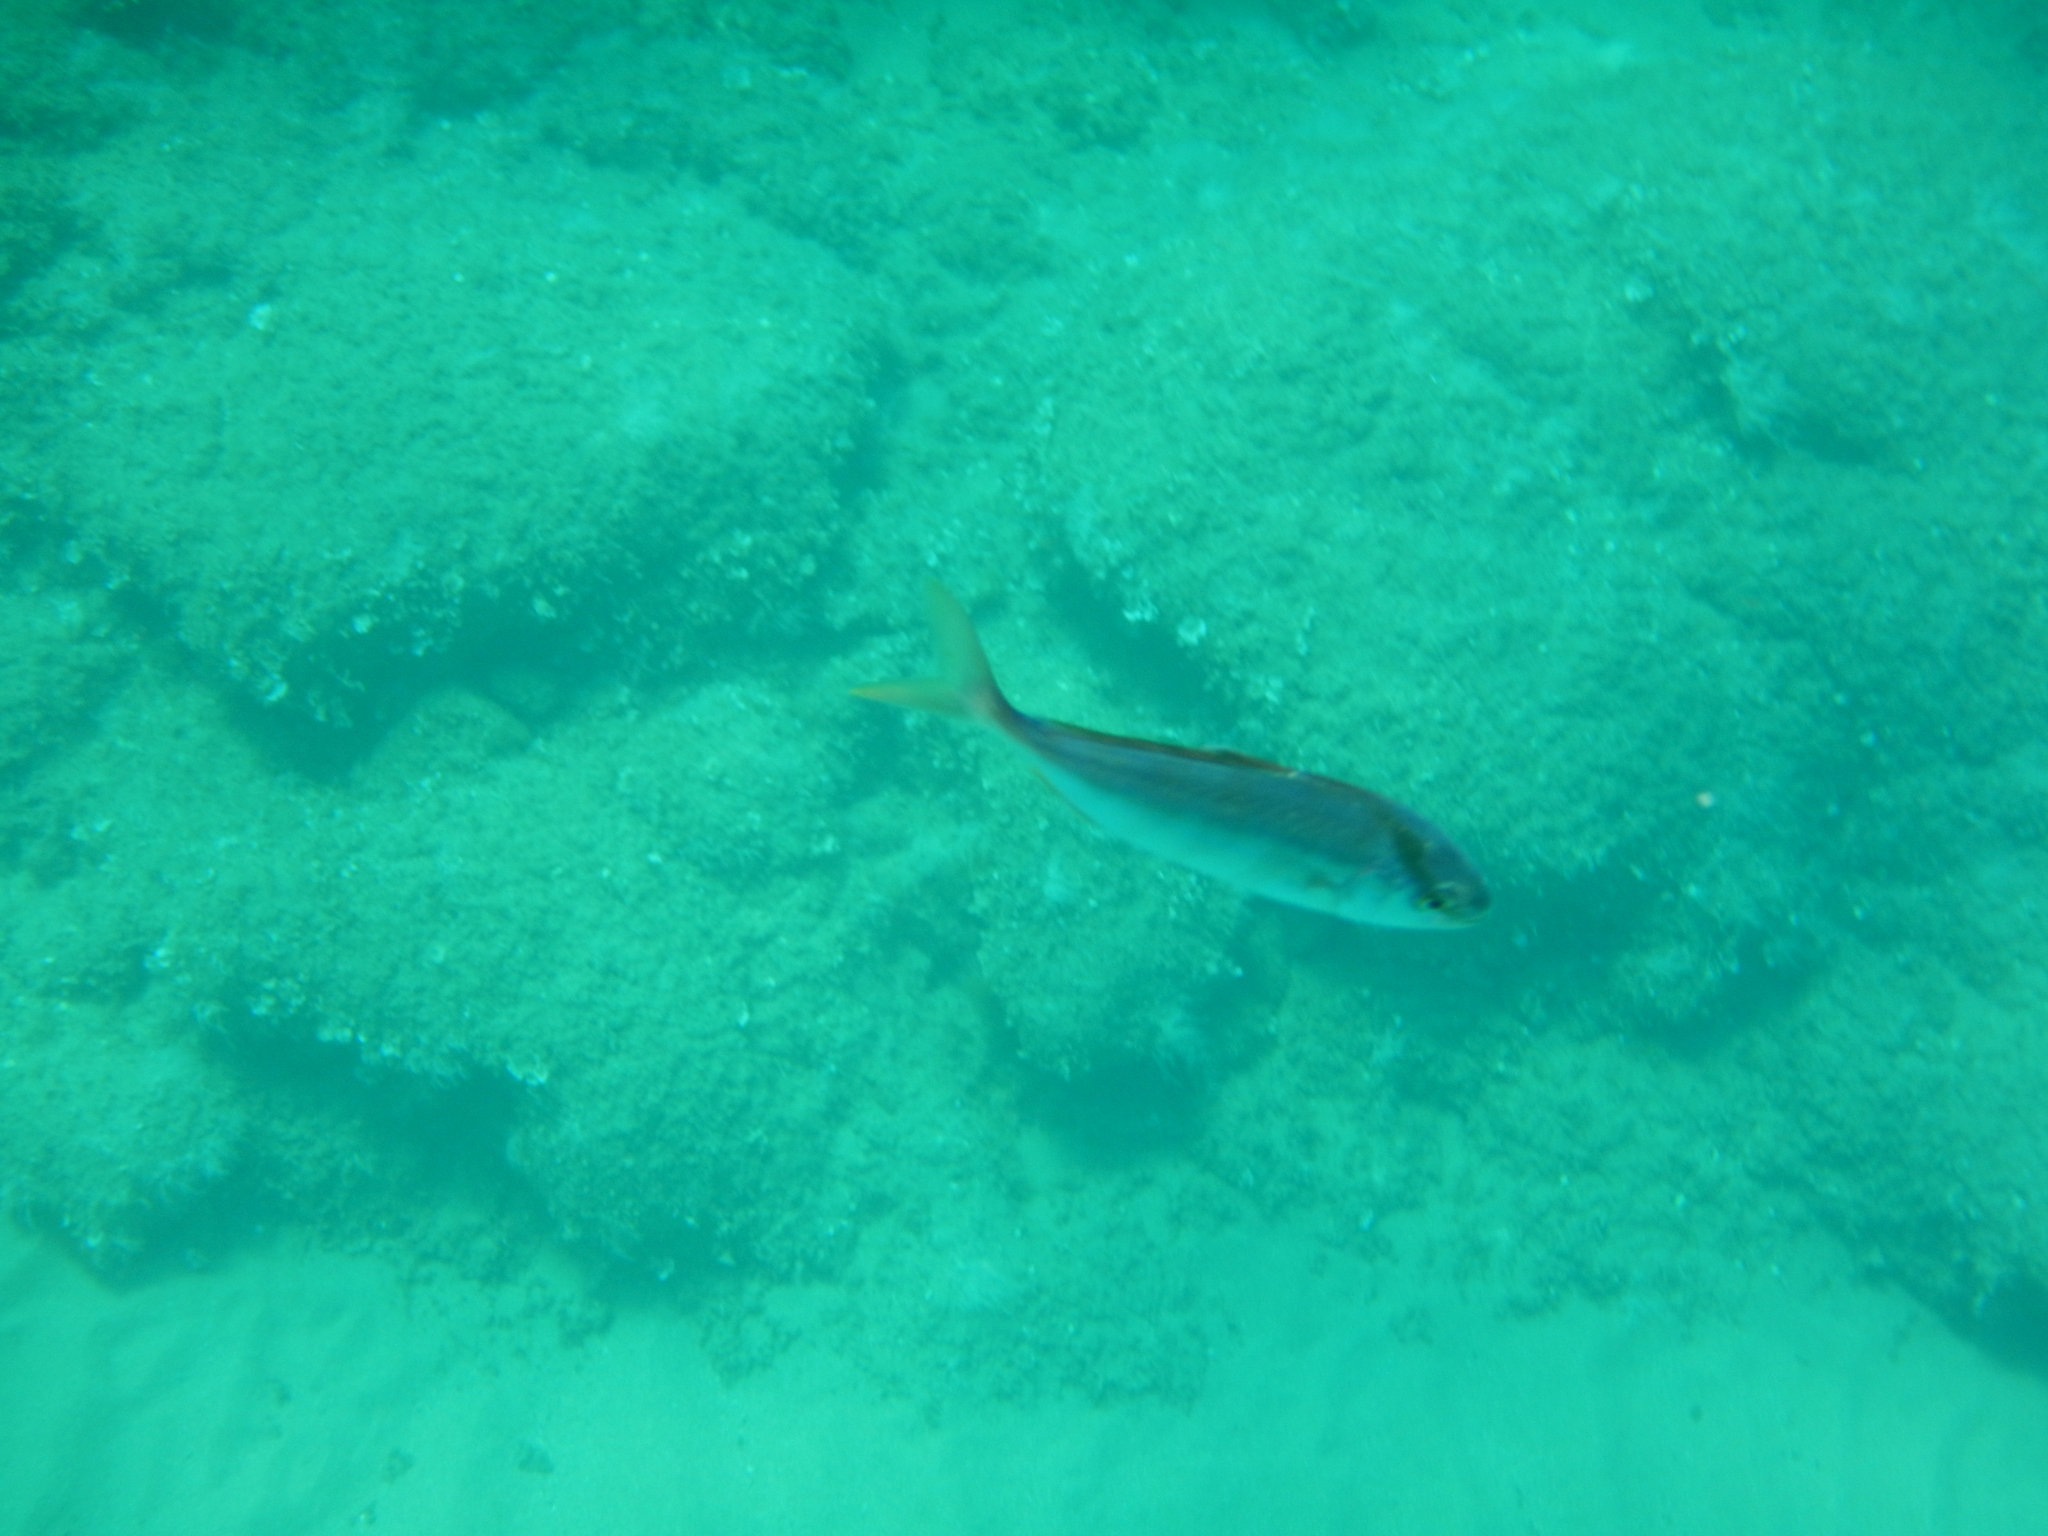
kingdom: Animalia
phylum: Chordata
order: Perciformes
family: Carangidae
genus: Seriola
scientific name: Seriola dumerili
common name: Greater amberjack
